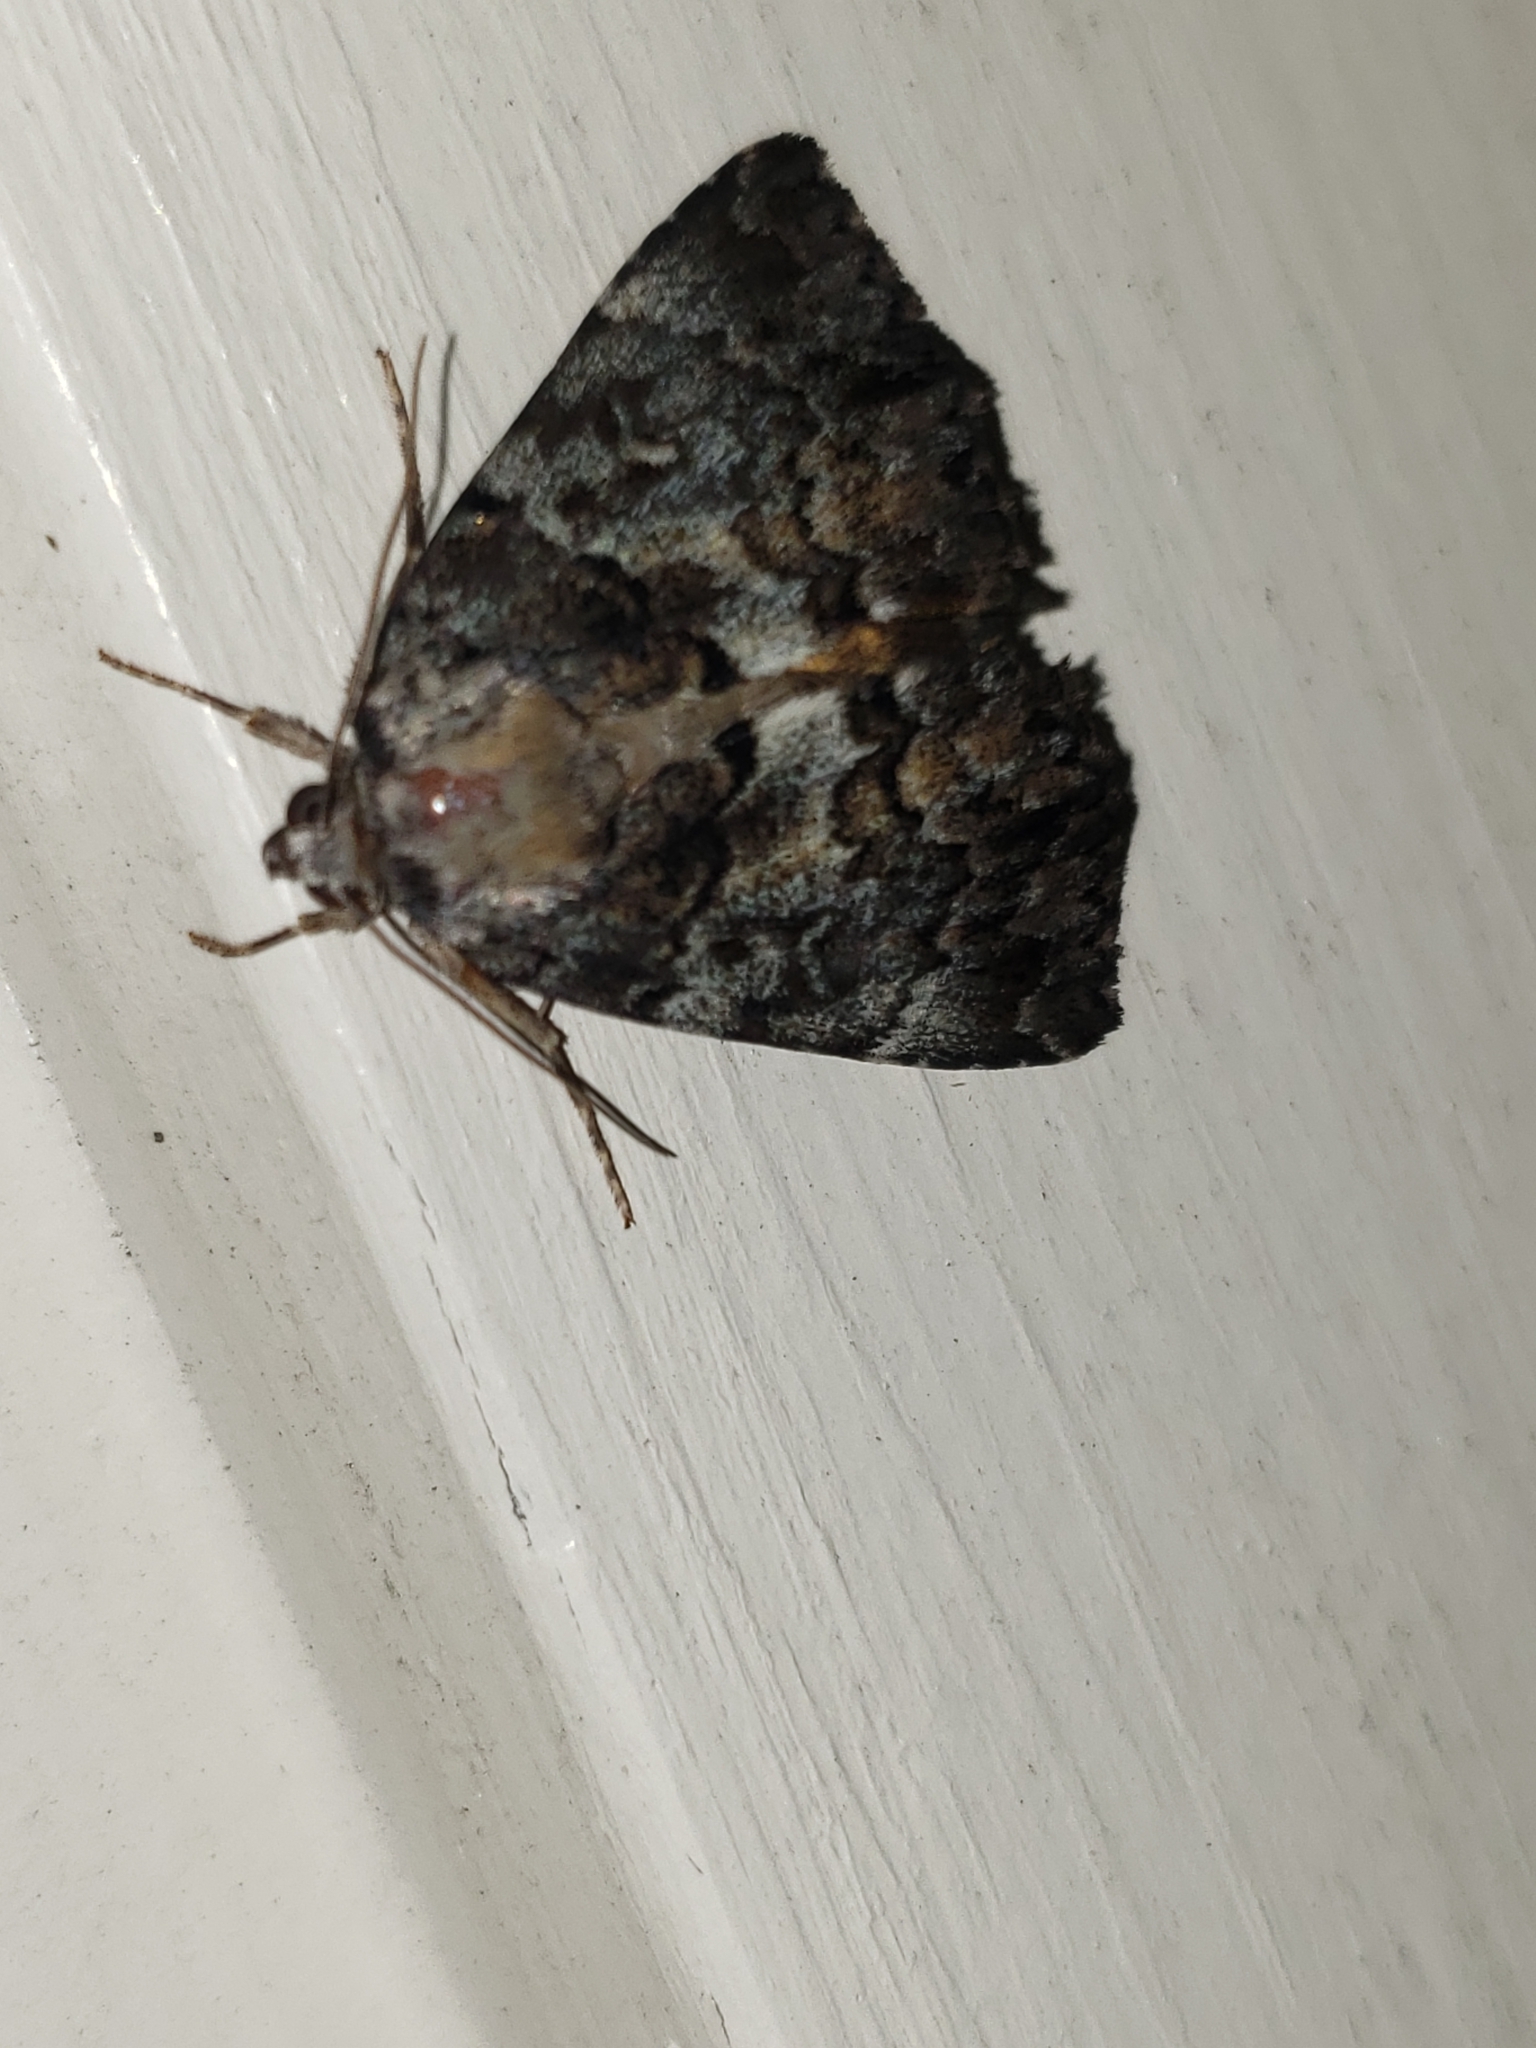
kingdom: Animalia
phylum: Arthropoda
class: Insecta
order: Lepidoptera
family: Erebidae
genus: Allotria
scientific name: Allotria elonympha
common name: False underwing
